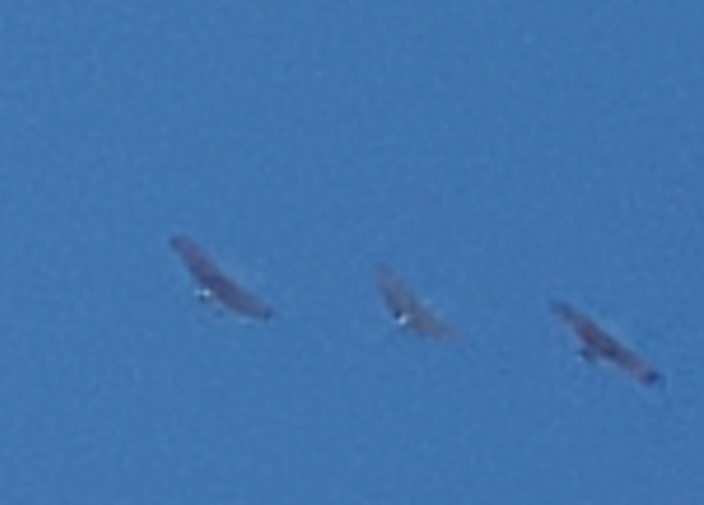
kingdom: Animalia
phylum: Chordata
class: Aves
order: Gruiformes
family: Gruidae
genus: Grus
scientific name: Grus canadensis
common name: Sandhill crane
